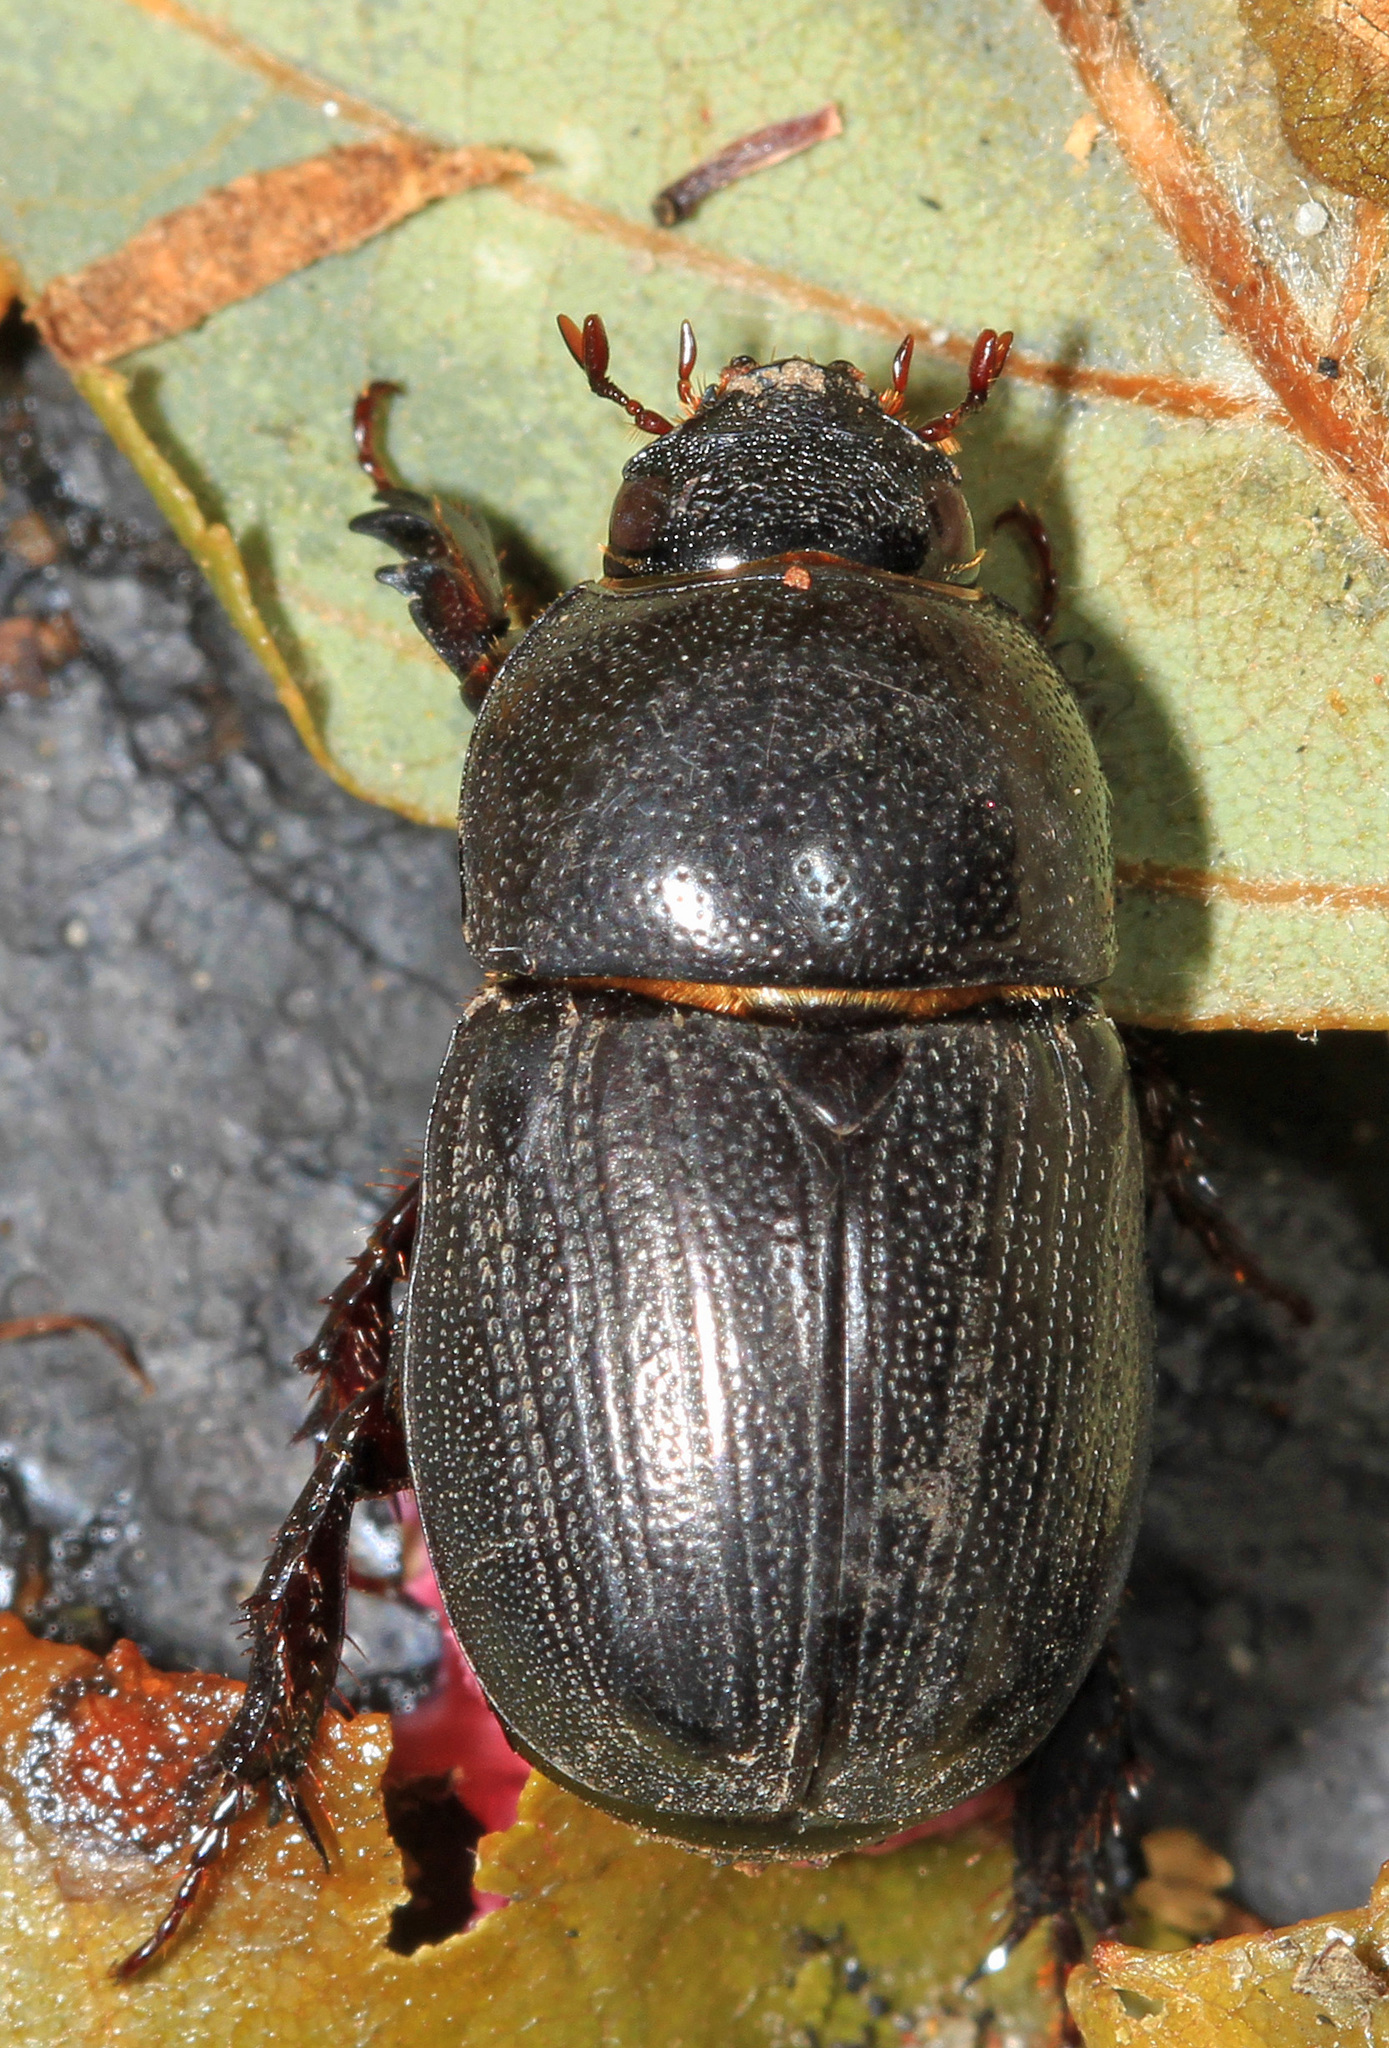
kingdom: Animalia
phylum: Arthropoda
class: Insecta
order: Coleoptera
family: Scarabaeidae
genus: Euetheola
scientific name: Euetheola humilis
